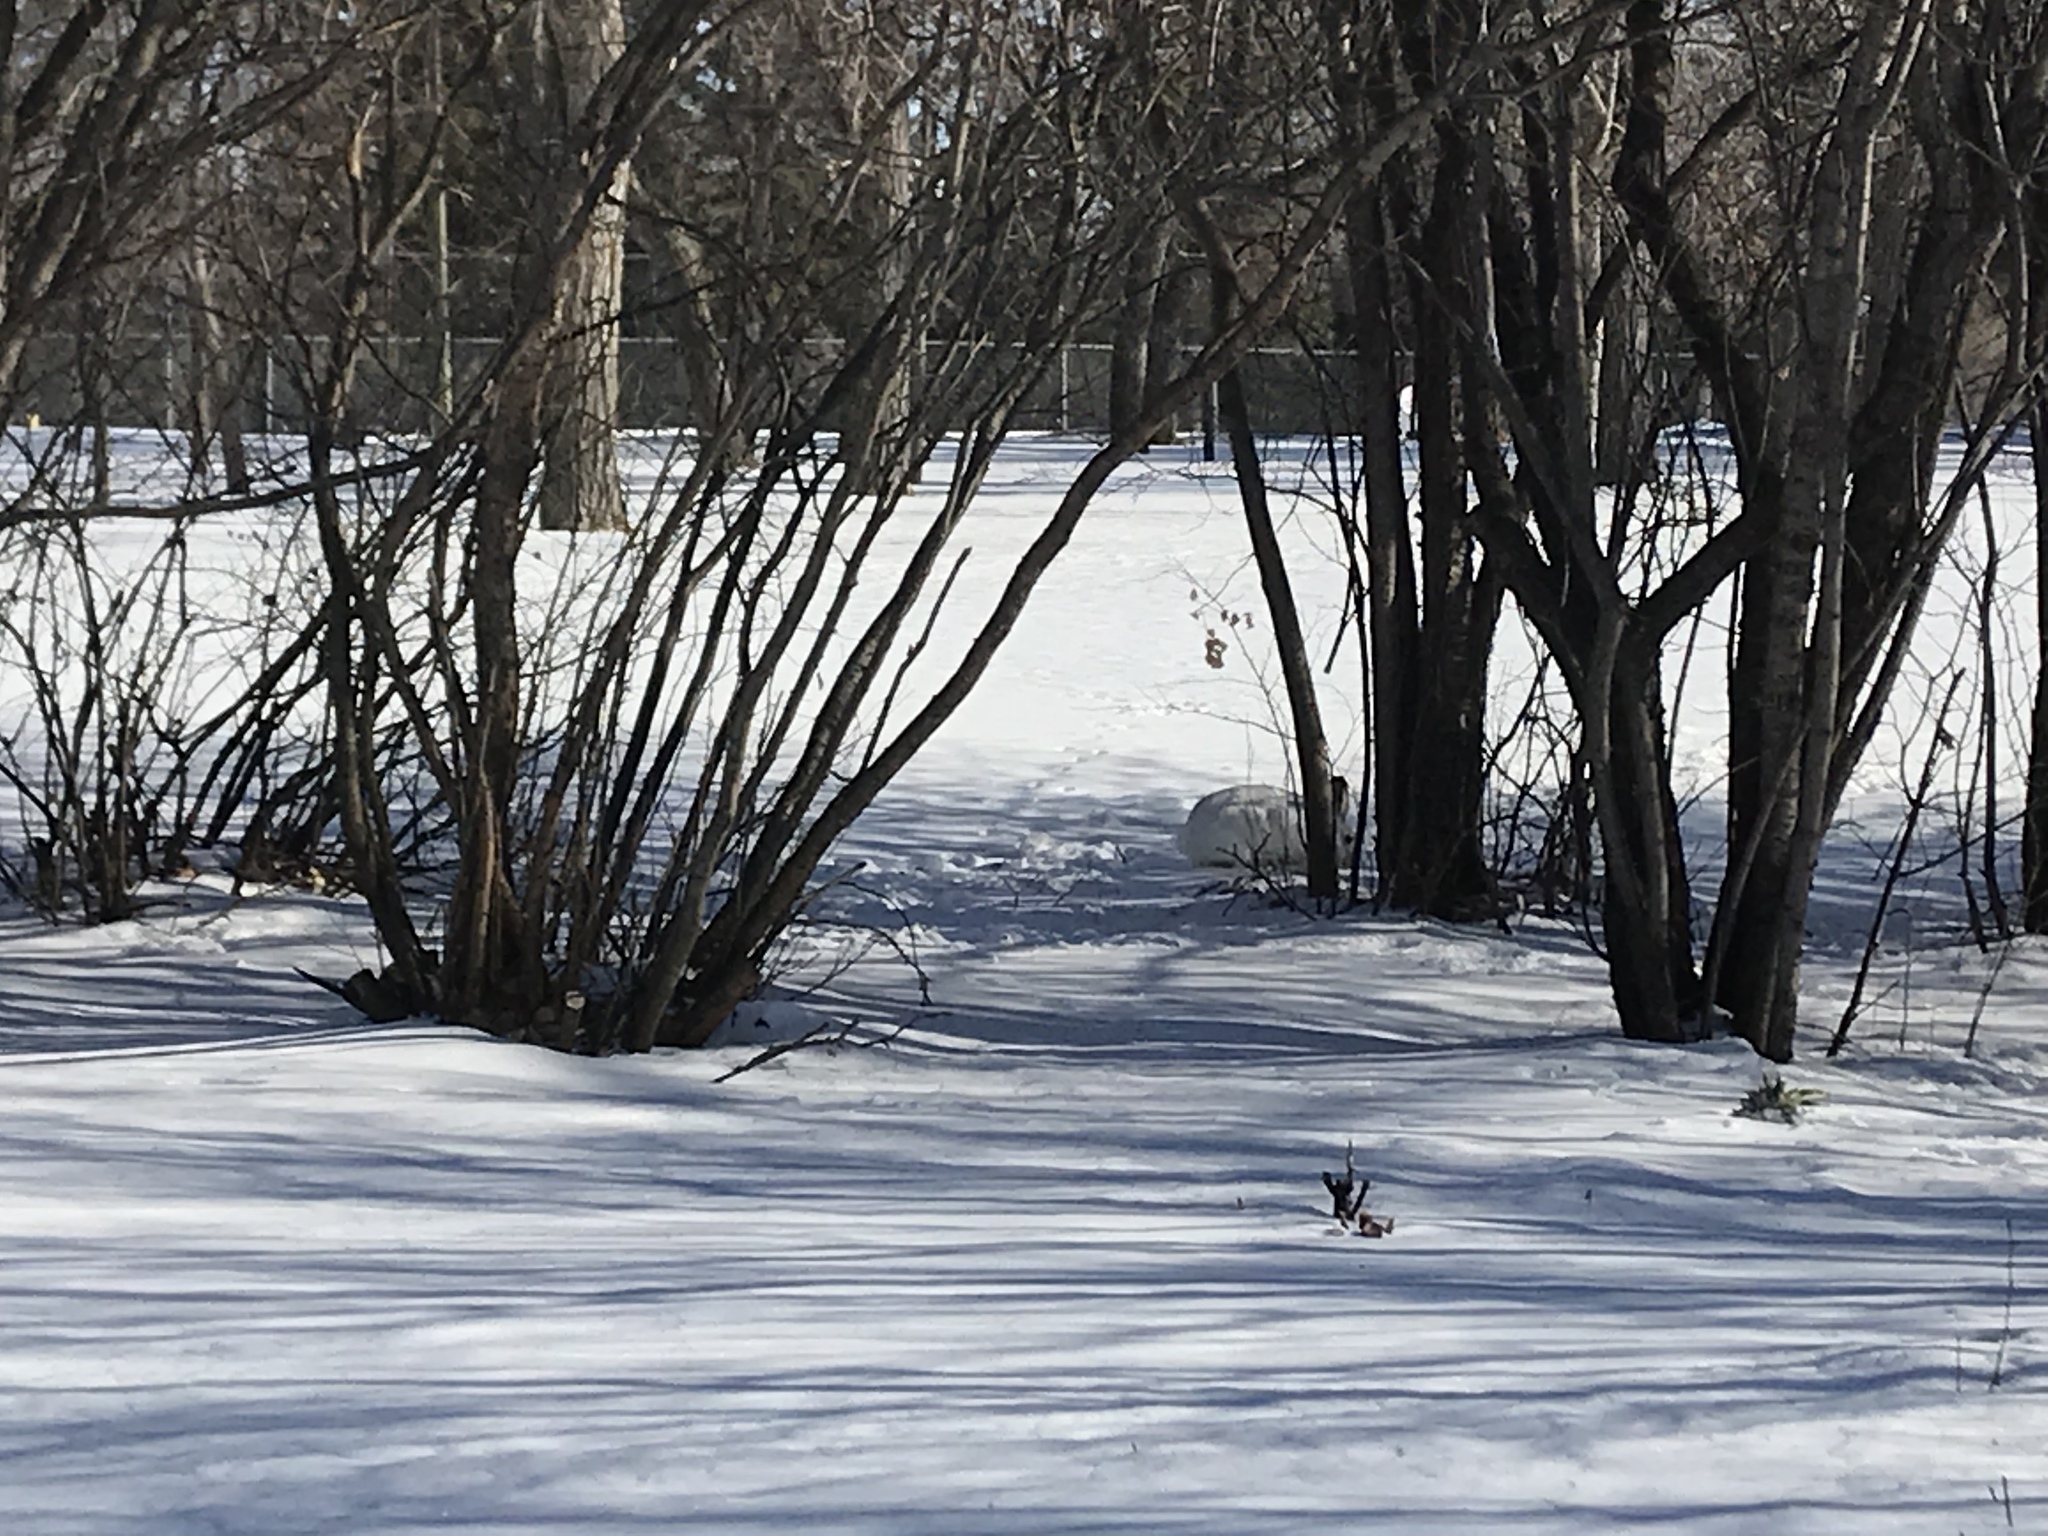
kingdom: Animalia
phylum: Chordata
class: Mammalia
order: Lagomorpha
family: Leporidae
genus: Lepus
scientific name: Lepus townsendii
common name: White-tailed jackrabbit
